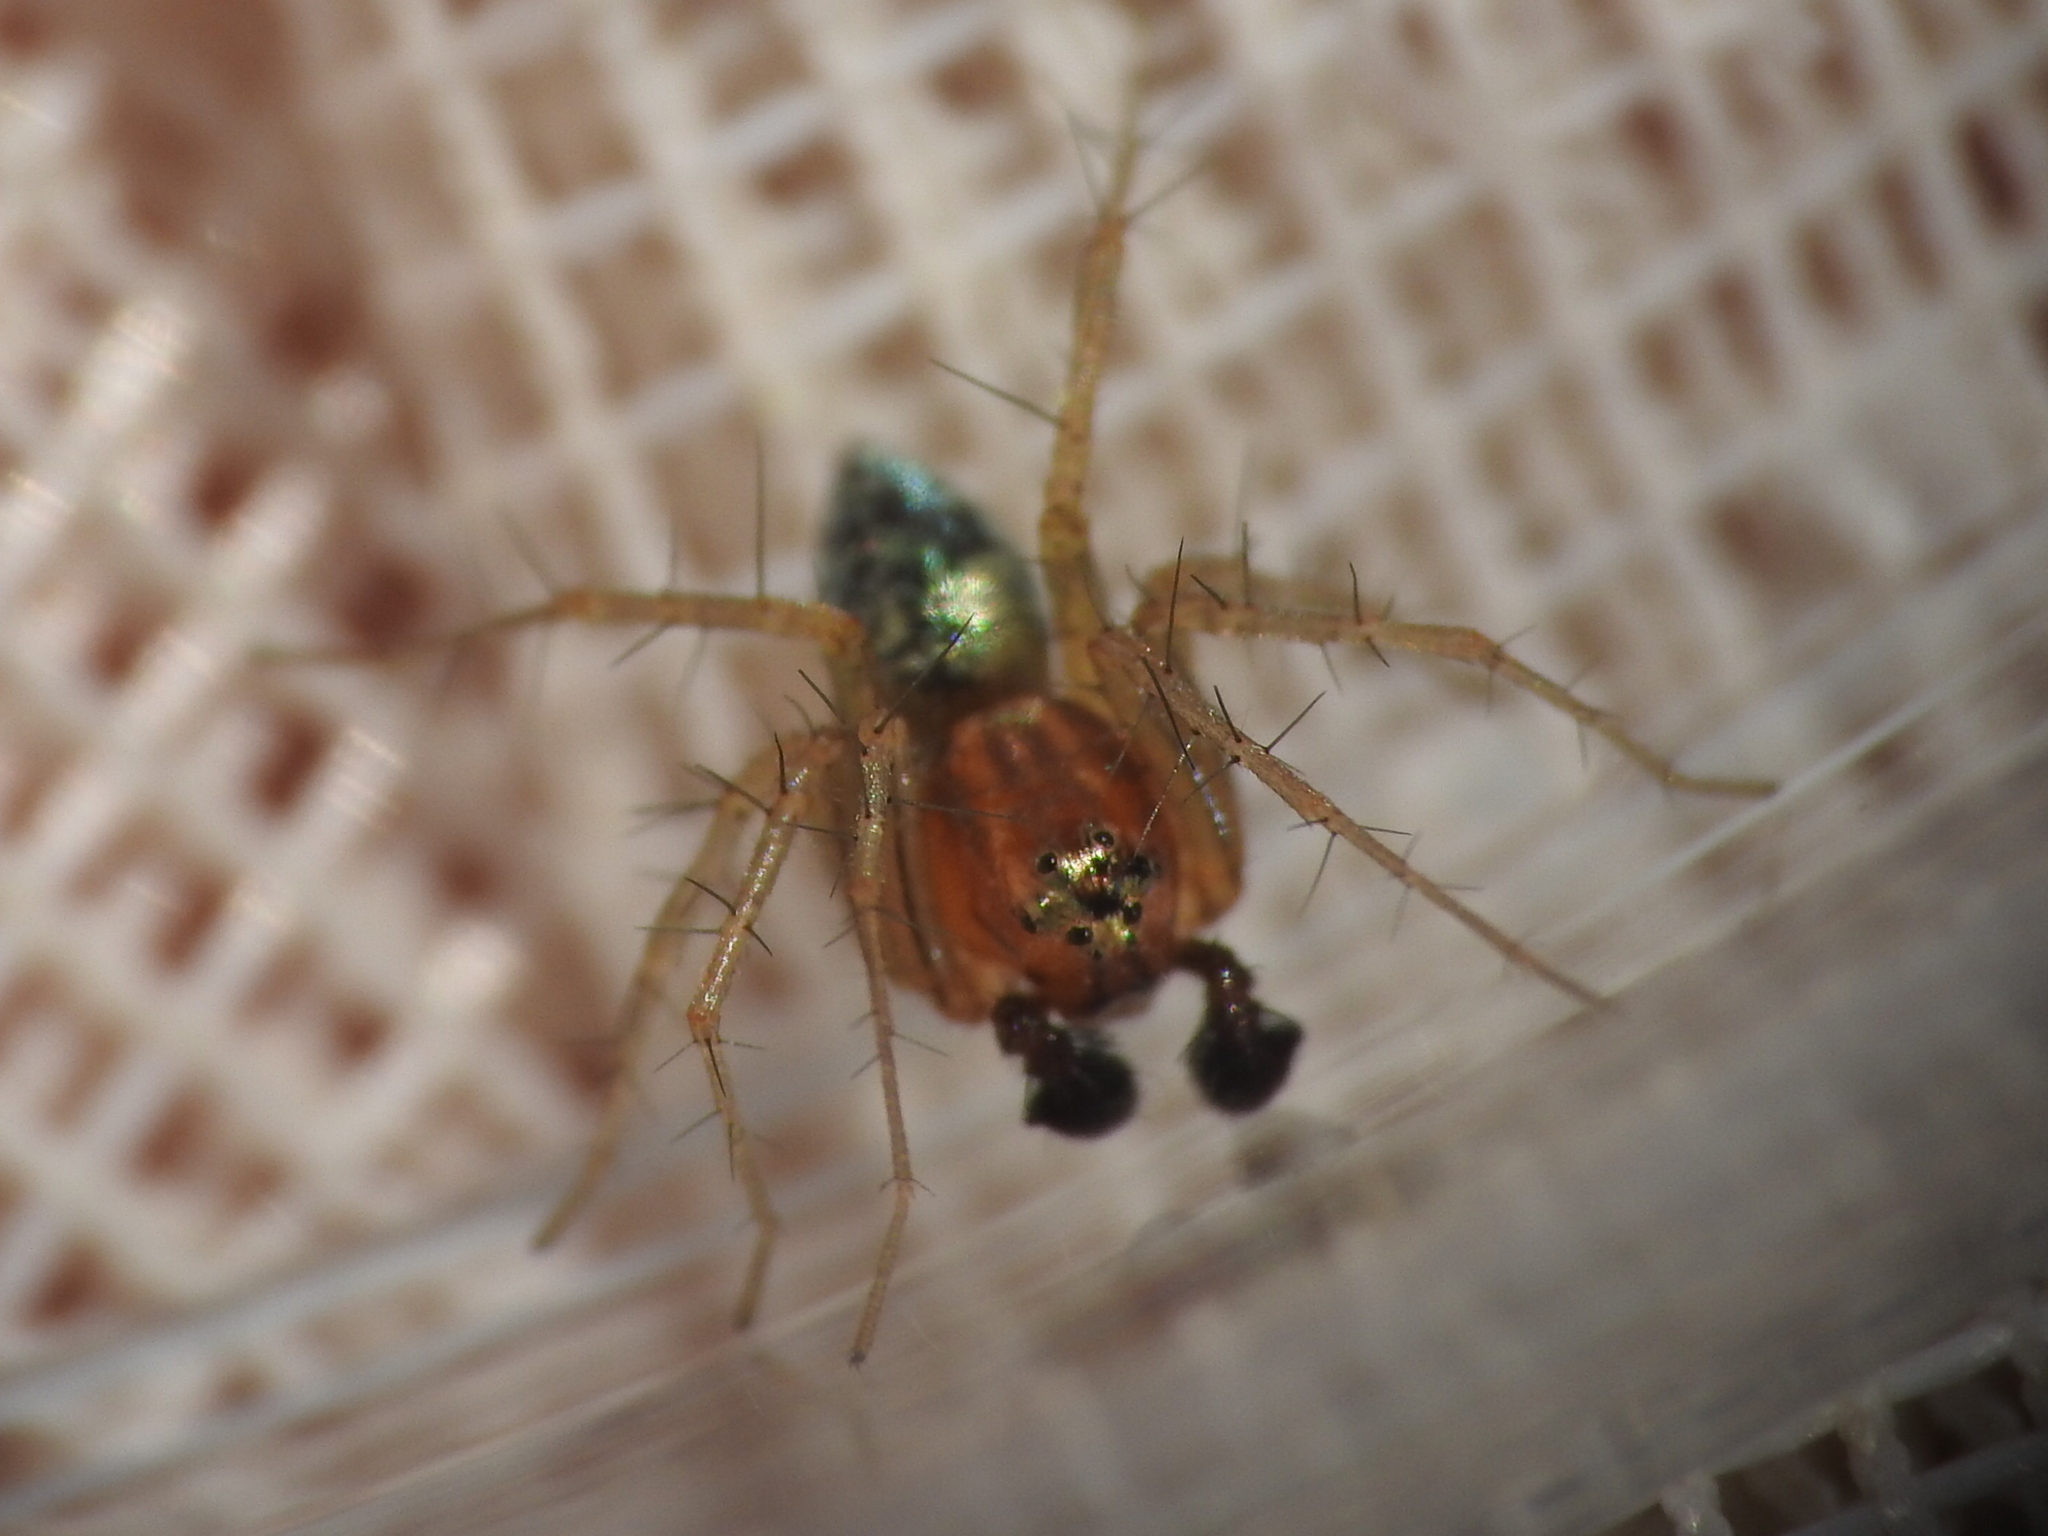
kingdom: Animalia
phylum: Arthropoda
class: Arachnida
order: Araneae
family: Oxyopidae
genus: Oxyopes
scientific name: Oxyopes salticus
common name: Lynx spiders
